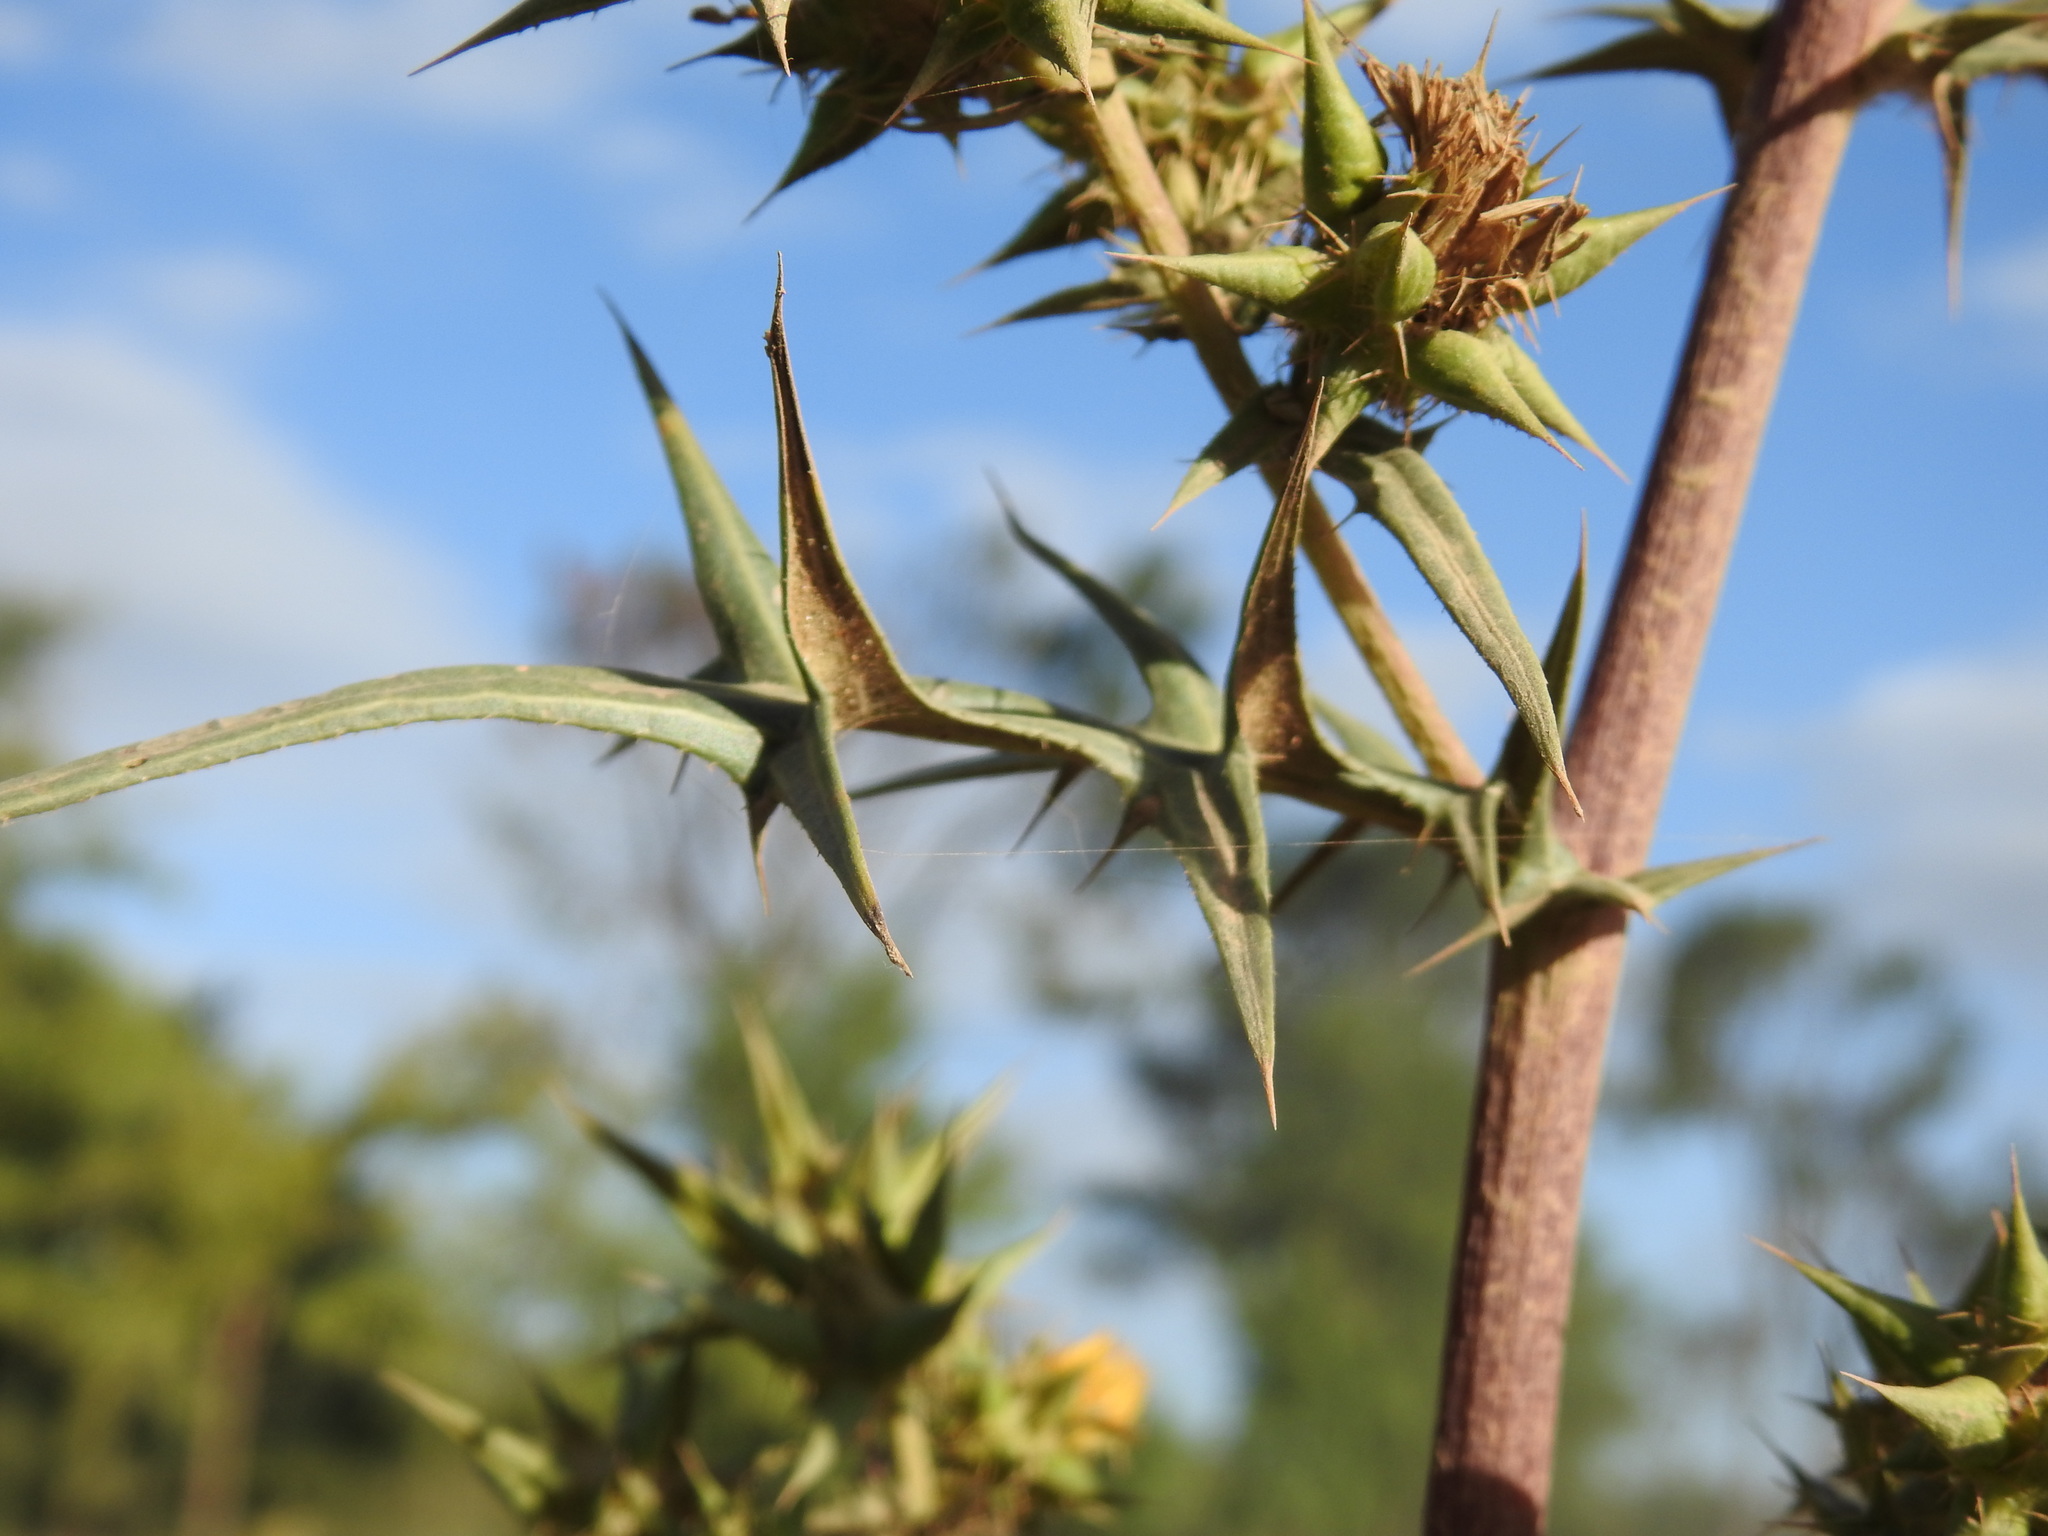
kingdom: Plantae
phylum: Tracheophyta
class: Magnoliopsida
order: Asterales
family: Asteraceae
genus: Berkheya
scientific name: Berkheya rigida
